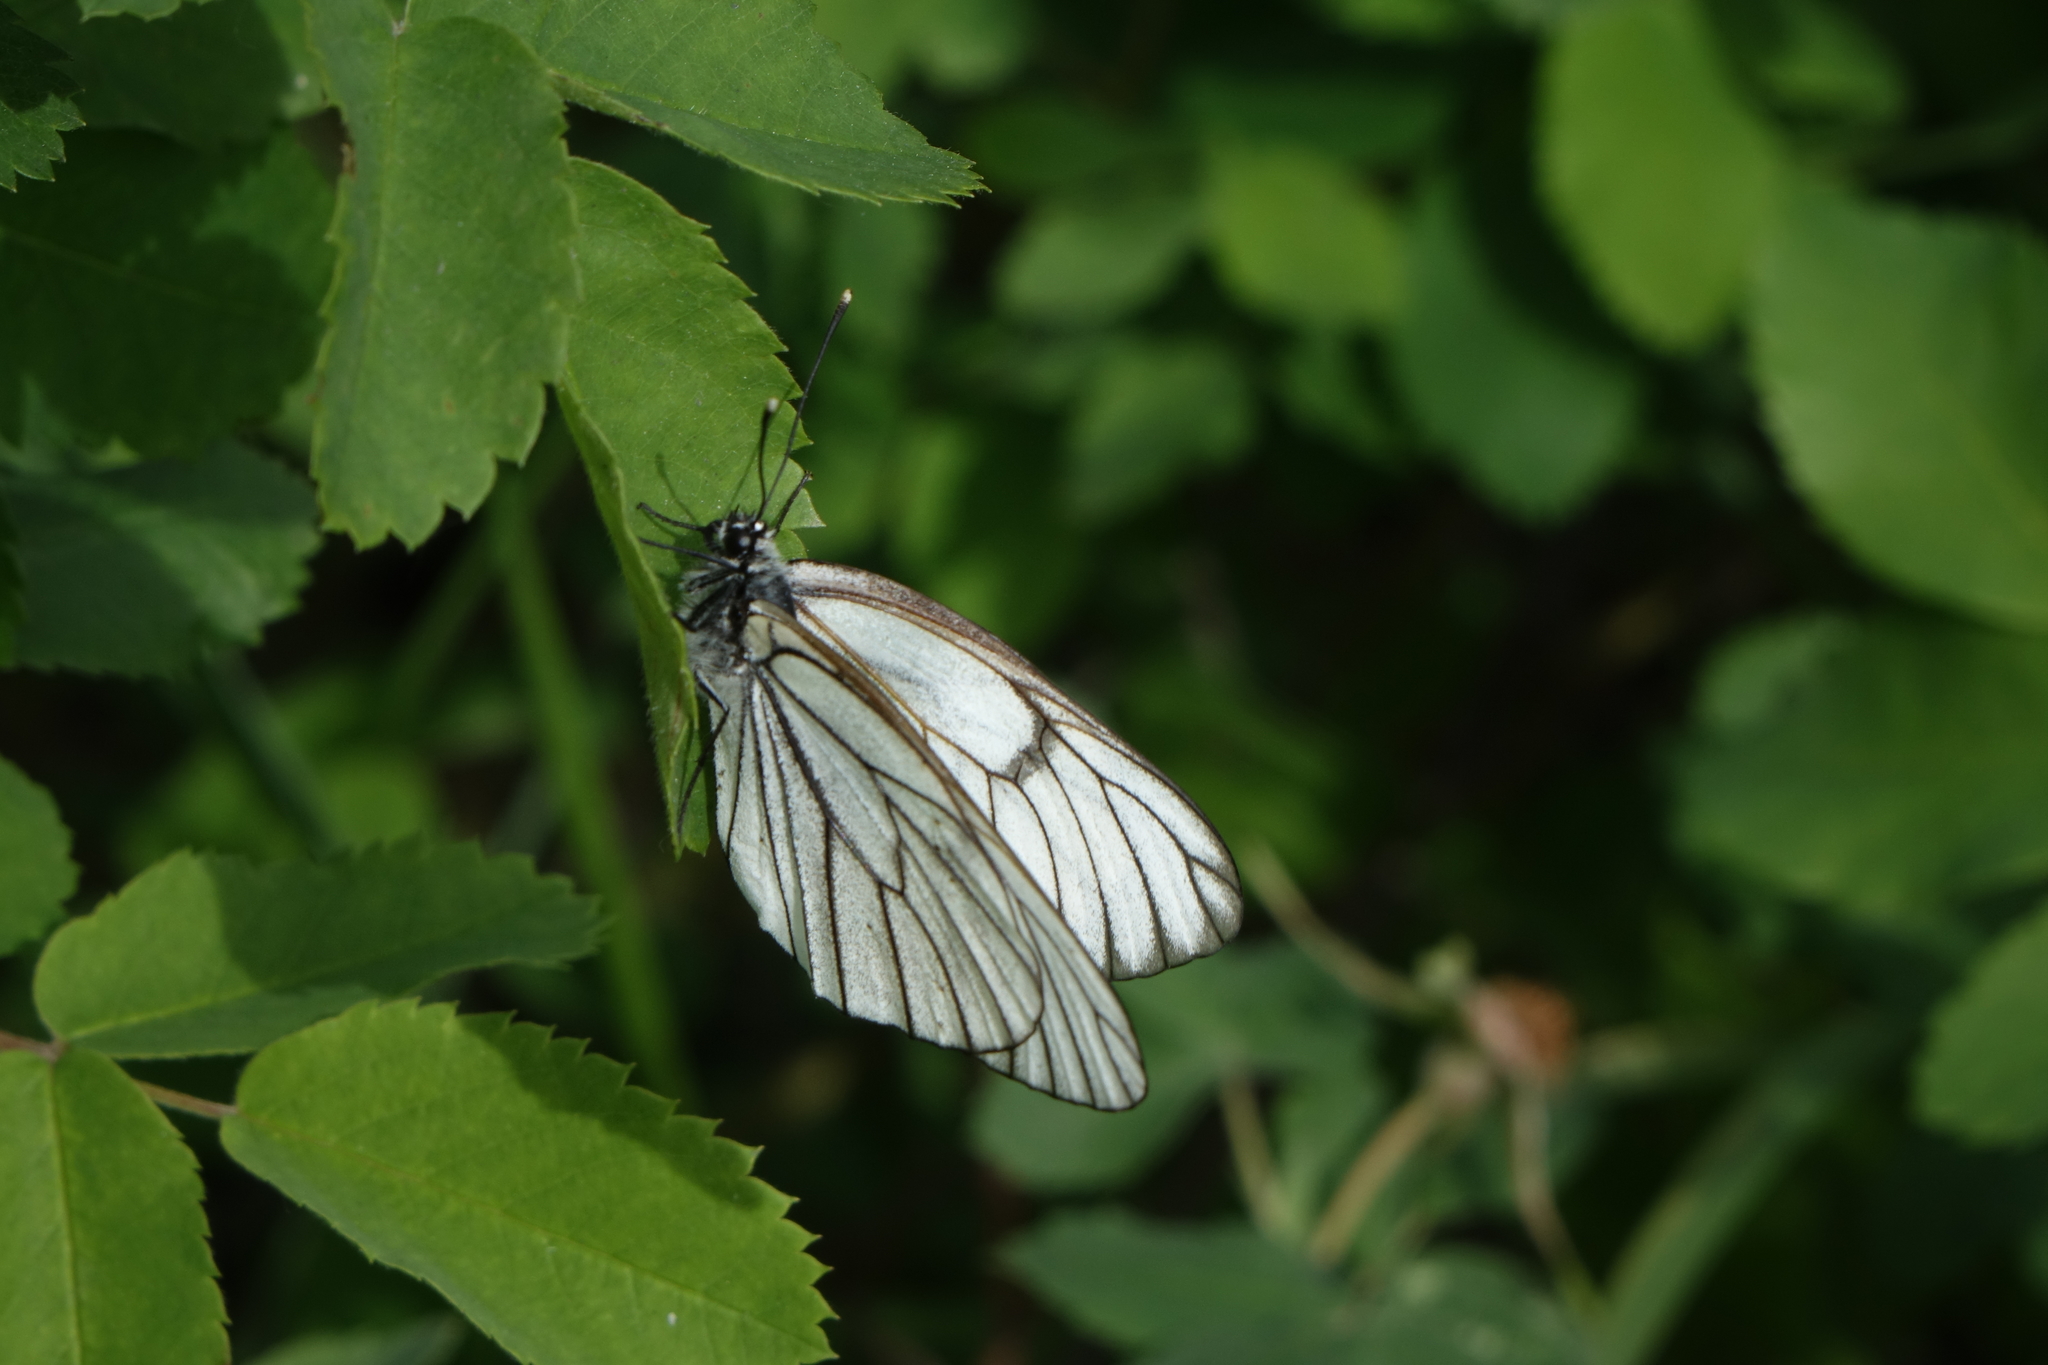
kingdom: Animalia
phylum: Arthropoda
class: Insecta
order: Lepidoptera
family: Pieridae
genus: Aporia
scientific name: Aporia crataegi
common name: Black-veined white
